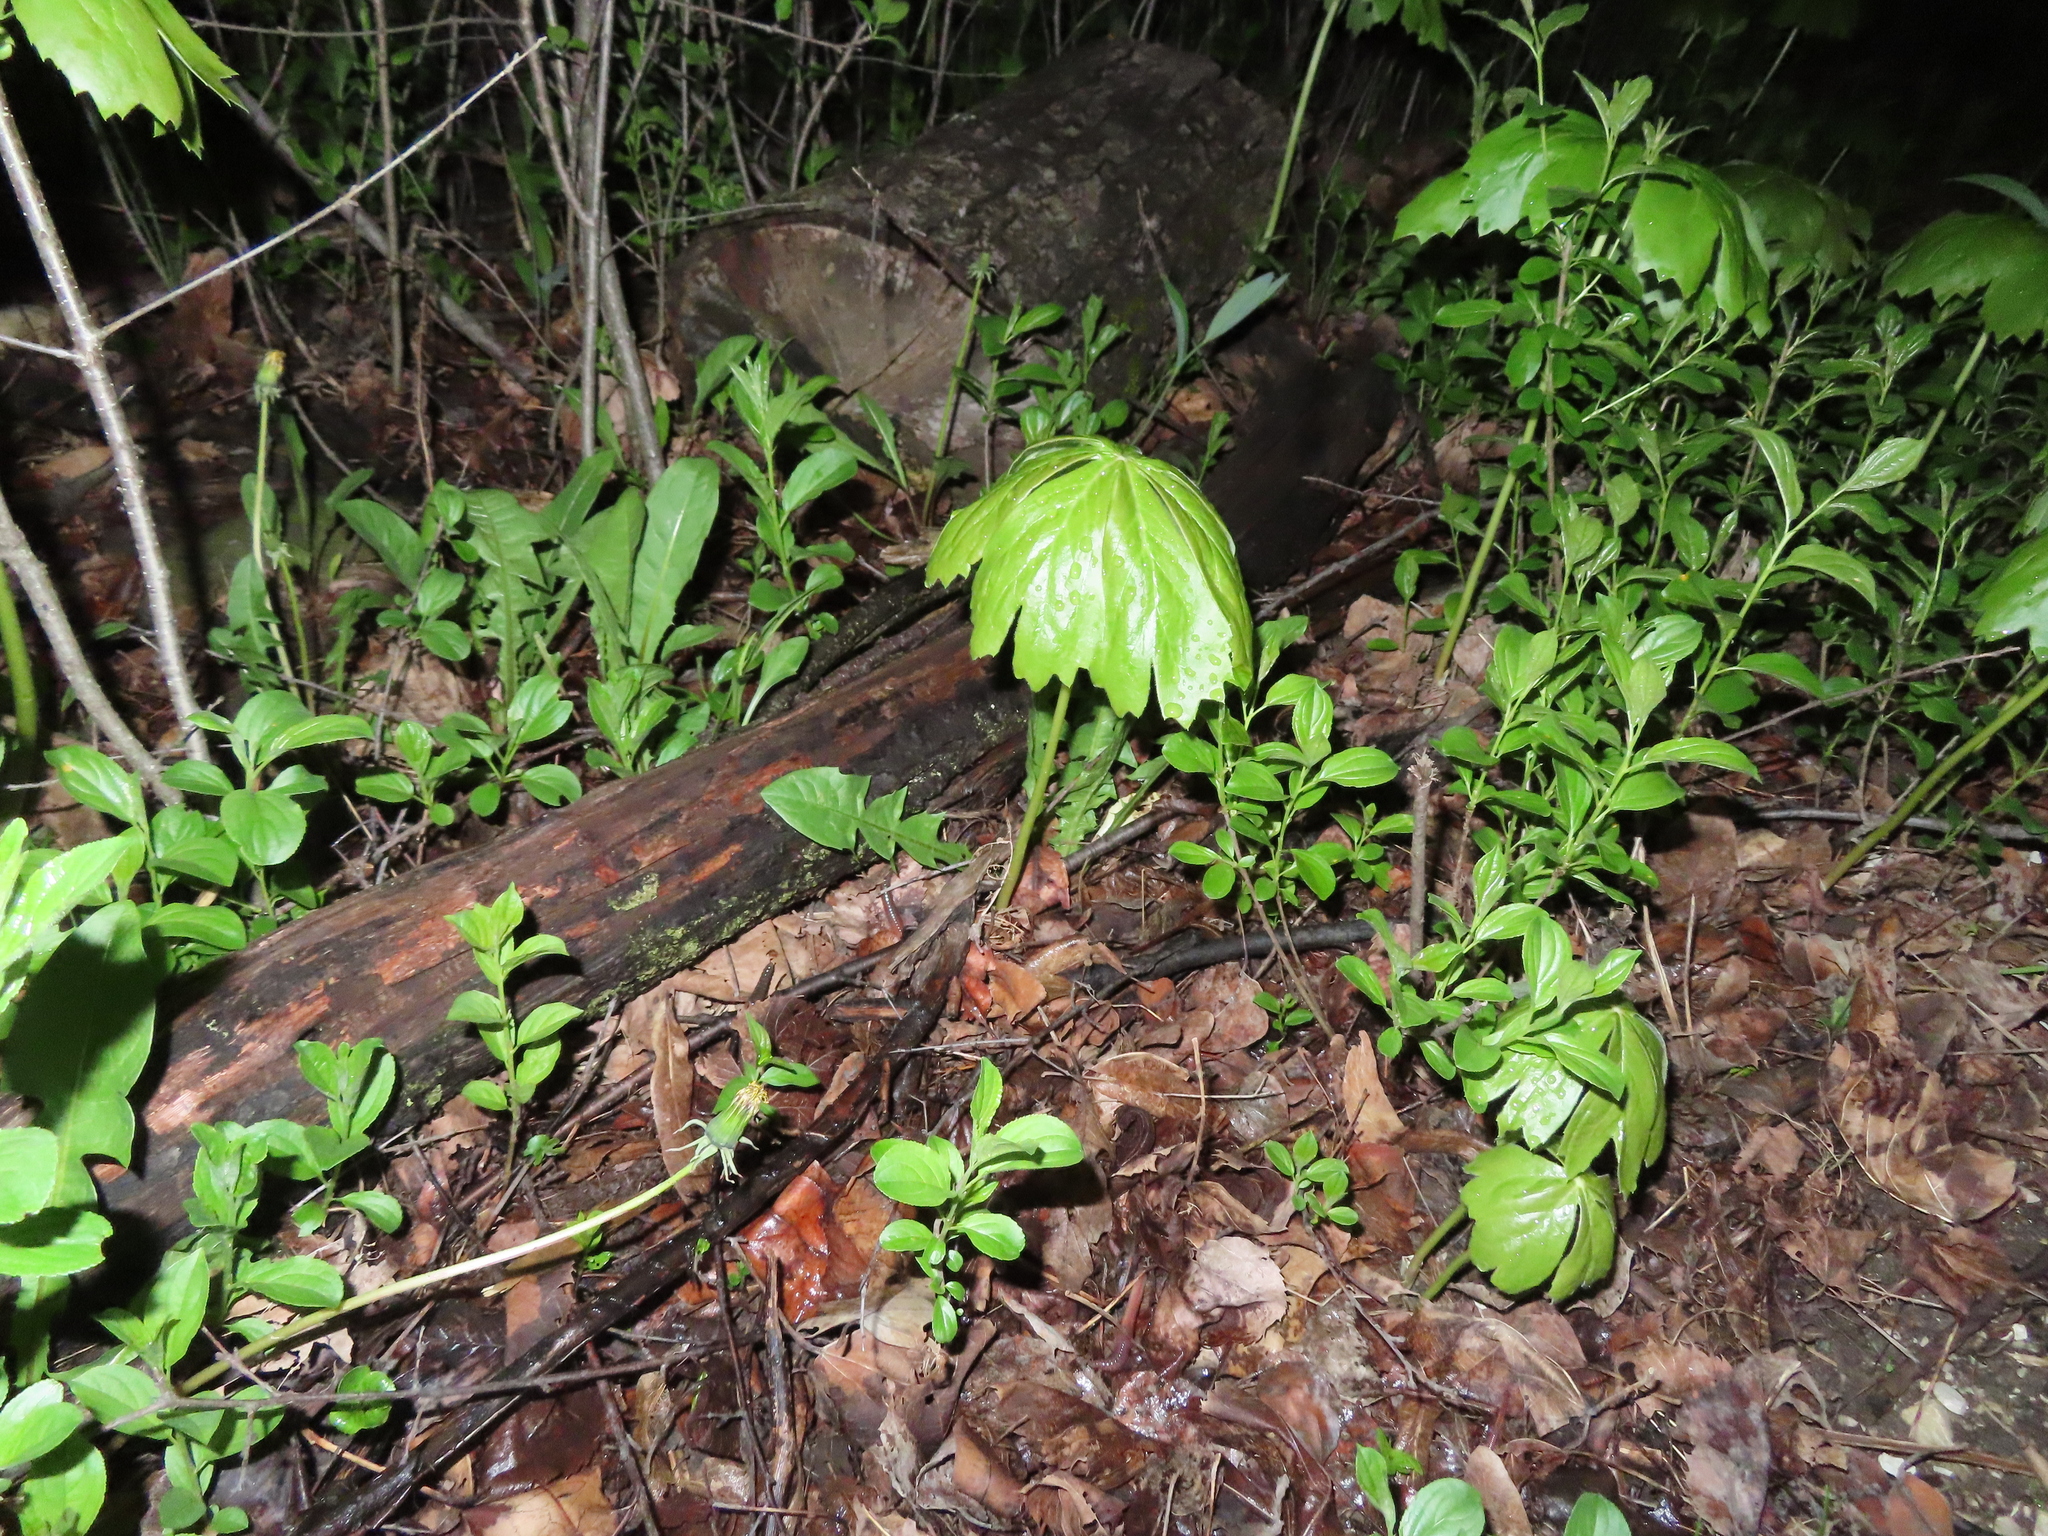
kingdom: Plantae
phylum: Tracheophyta
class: Magnoliopsida
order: Ranunculales
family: Berberidaceae
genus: Podophyllum
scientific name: Podophyllum peltatum
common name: Wild mandrake
